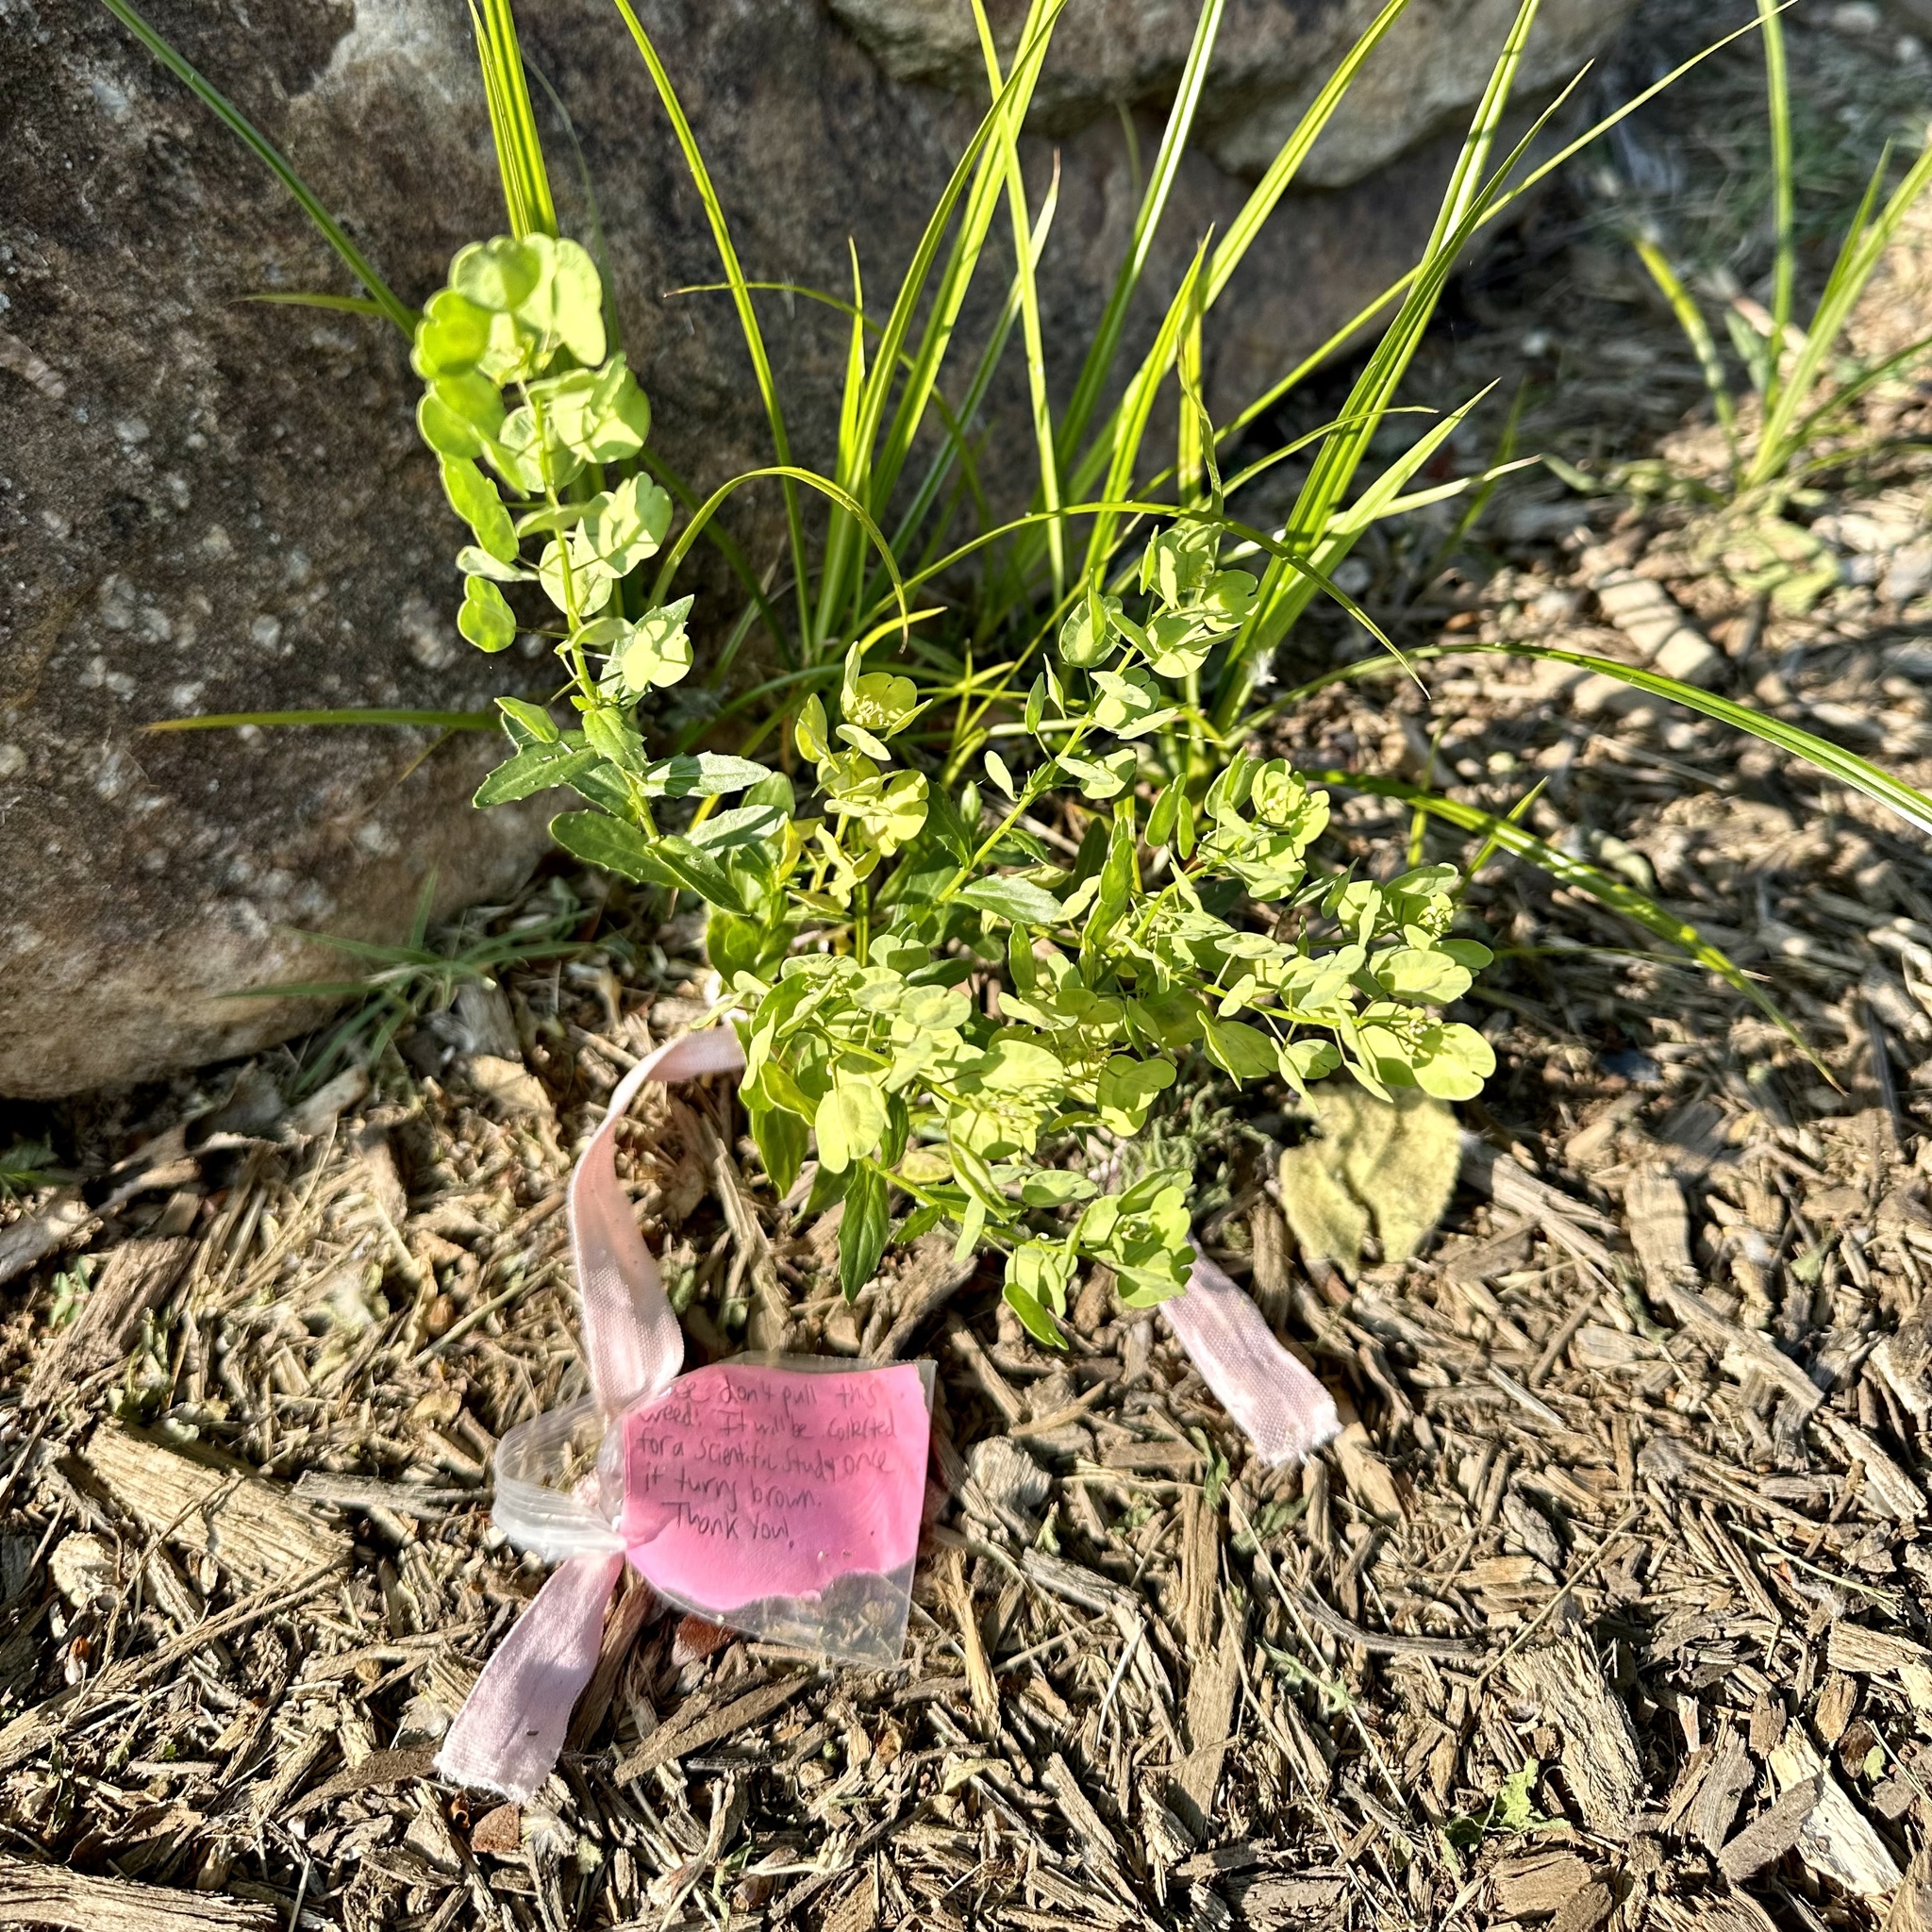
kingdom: Plantae
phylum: Tracheophyta
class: Magnoliopsida
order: Brassicales
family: Brassicaceae
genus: Thlaspi
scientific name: Thlaspi arvense
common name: Field pennycress
